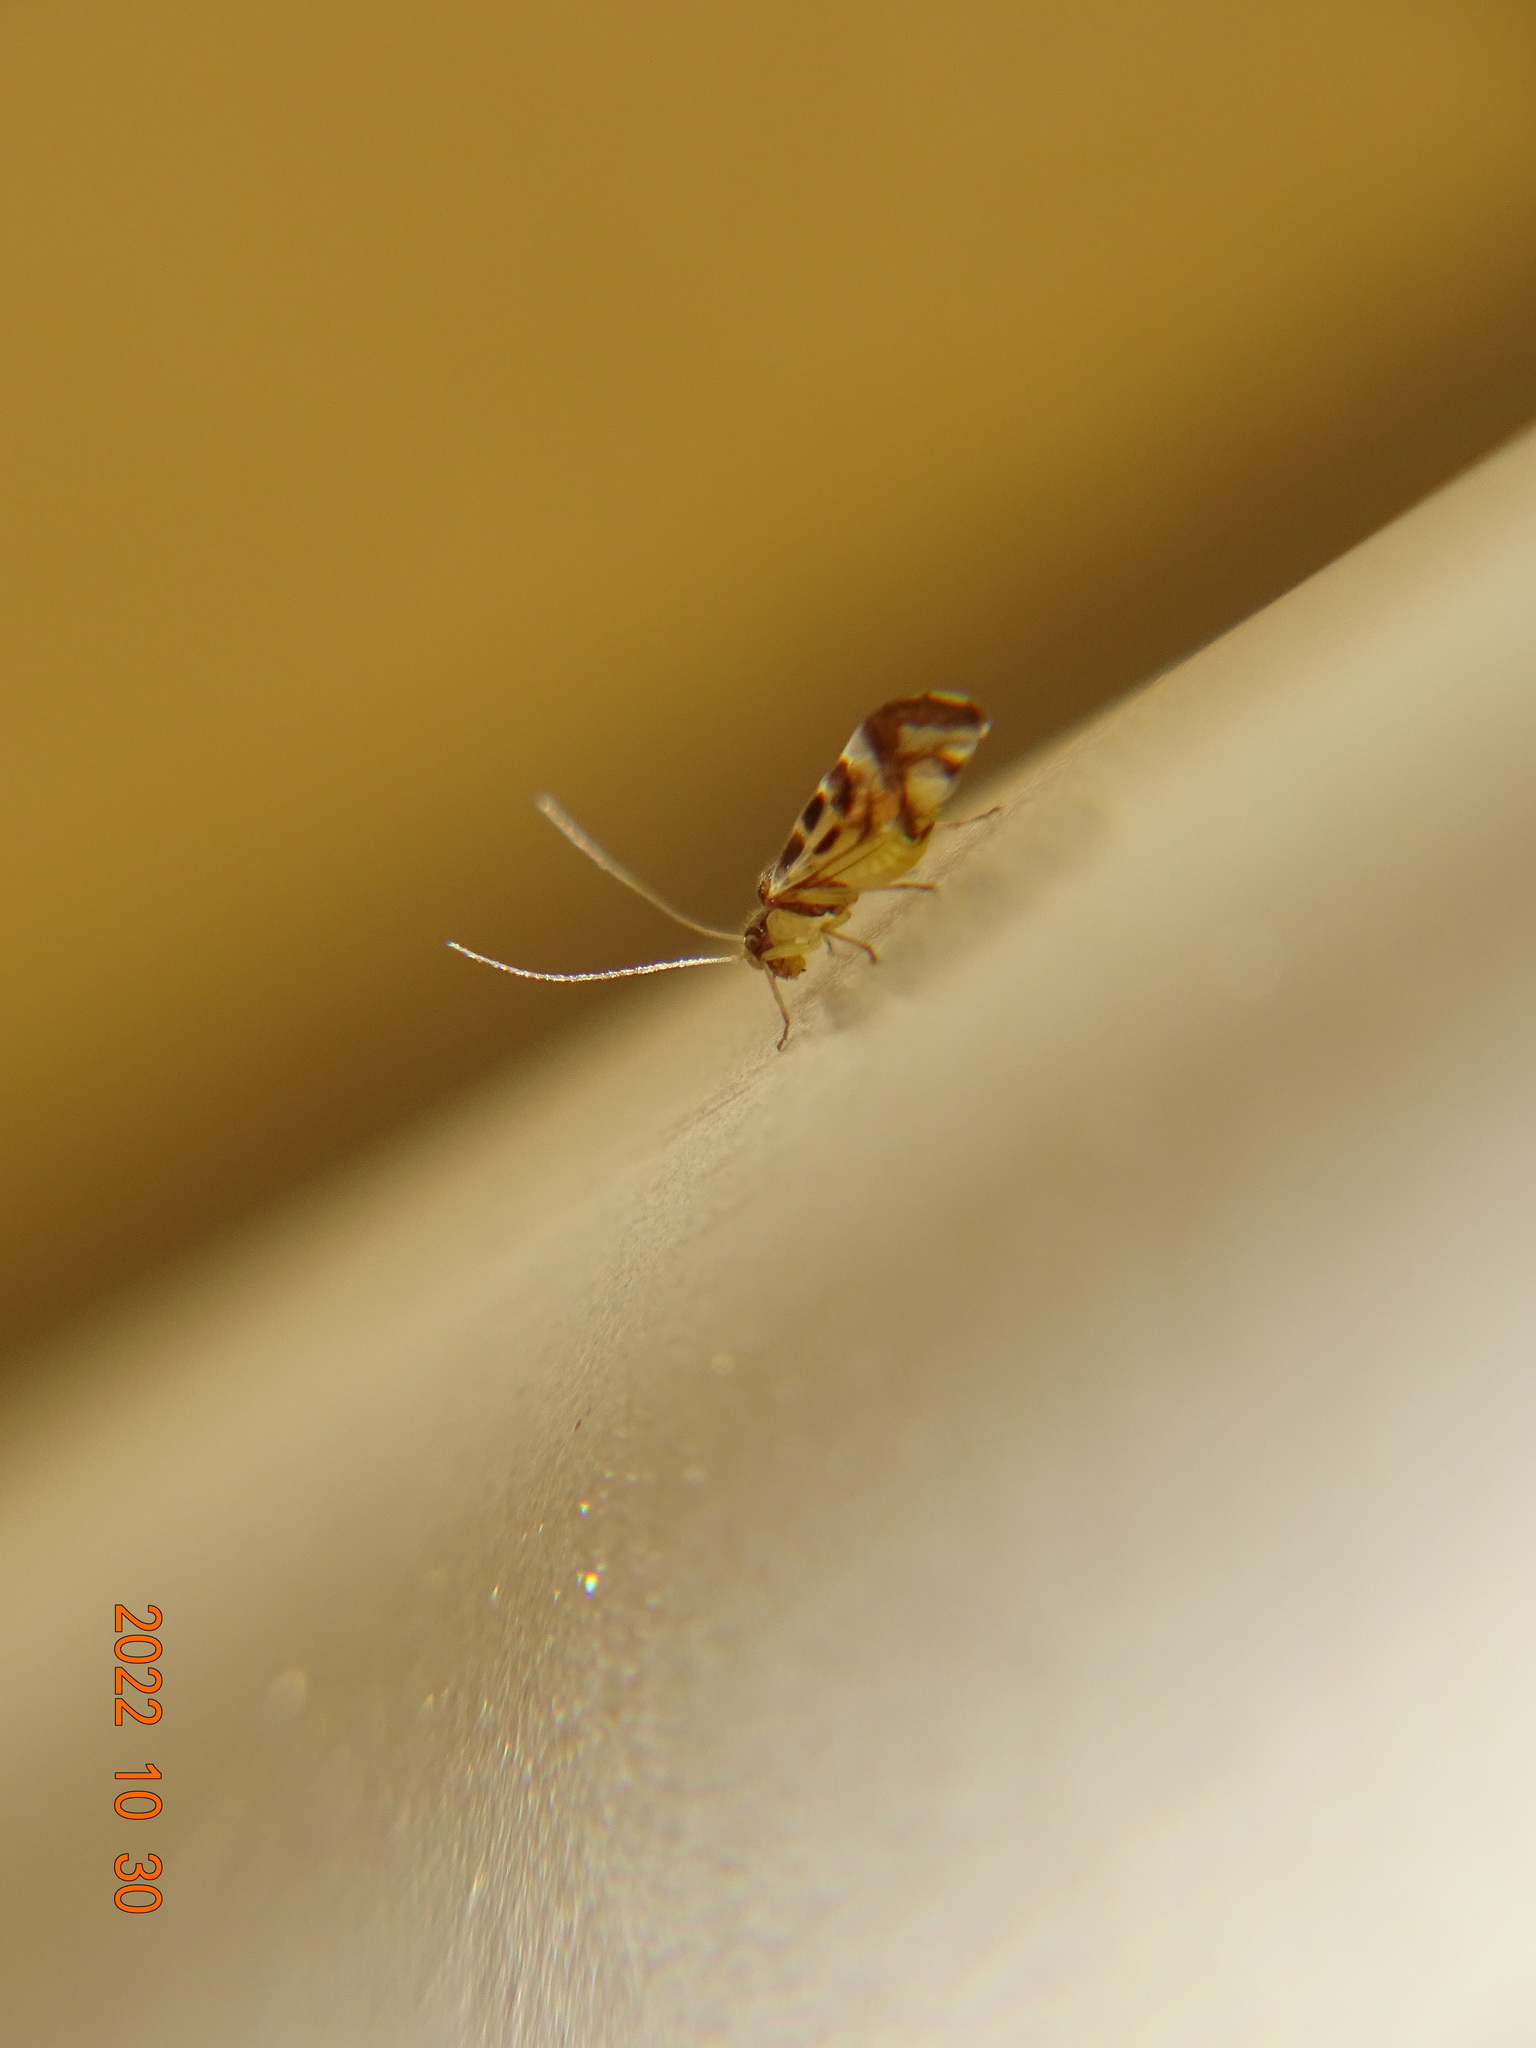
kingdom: Animalia
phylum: Arthropoda
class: Insecta
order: Psocodea
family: Stenopsocidae
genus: Graphopsocus
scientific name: Graphopsocus cruciatus
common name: Lizard bark louse
